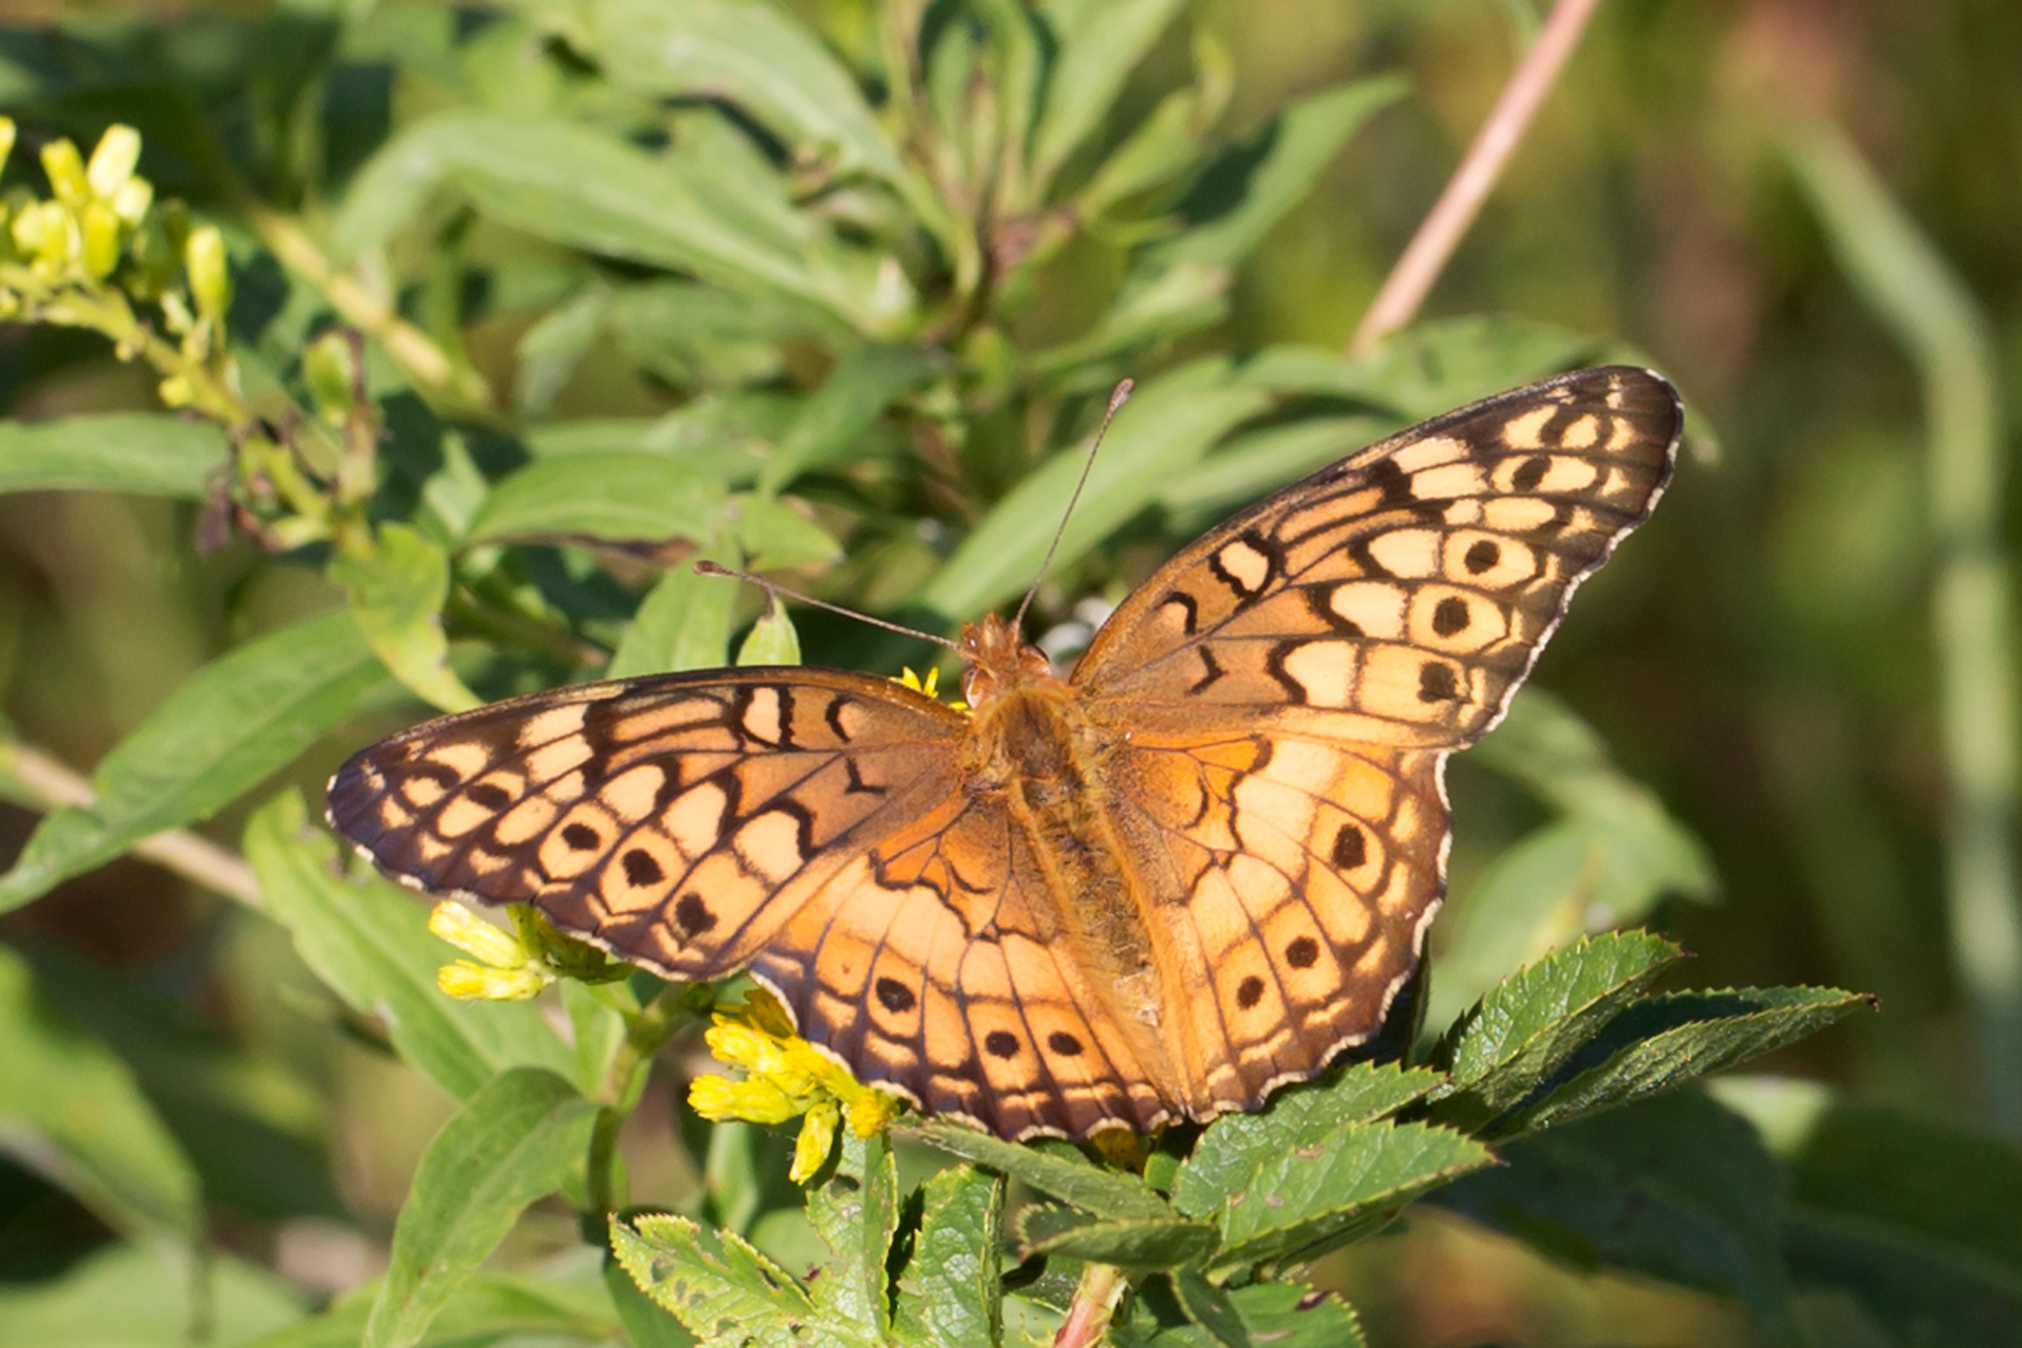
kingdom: Animalia
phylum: Arthropoda
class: Insecta
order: Lepidoptera
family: Nymphalidae
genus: Euptoieta
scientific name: Euptoieta claudia
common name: Variegated fritillary
